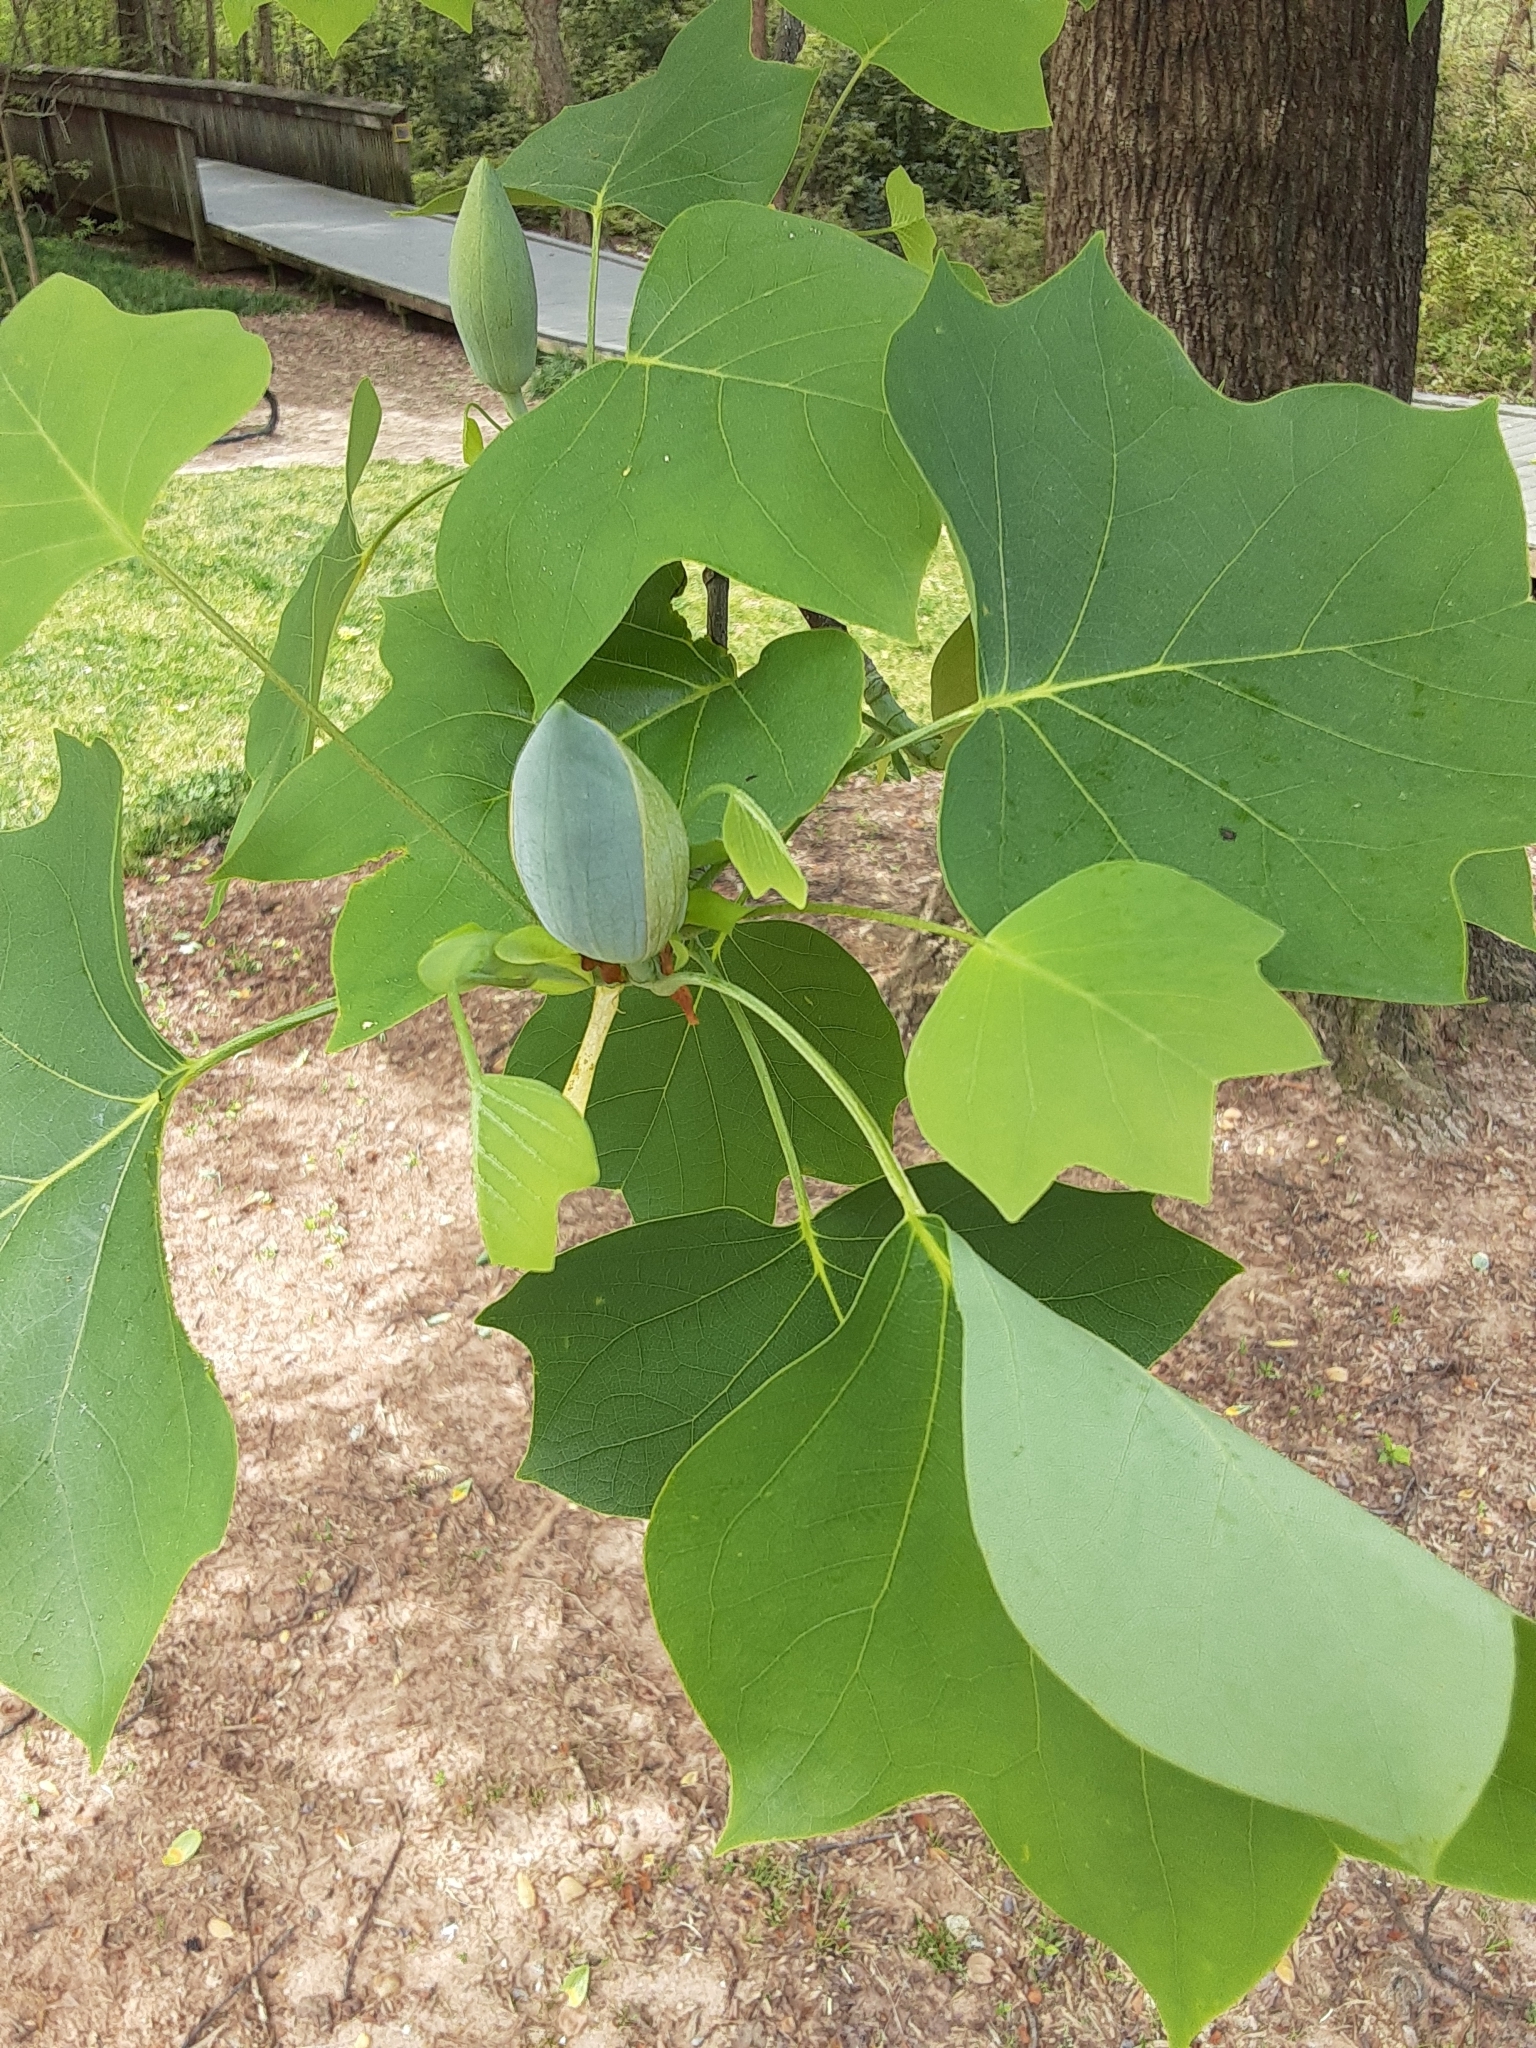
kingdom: Plantae
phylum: Tracheophyta
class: Magnoliopsida
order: Magnoliales
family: Magnoliaceae
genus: Liriodendron
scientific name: Liriodendron tulipifera
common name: Tulip tree
